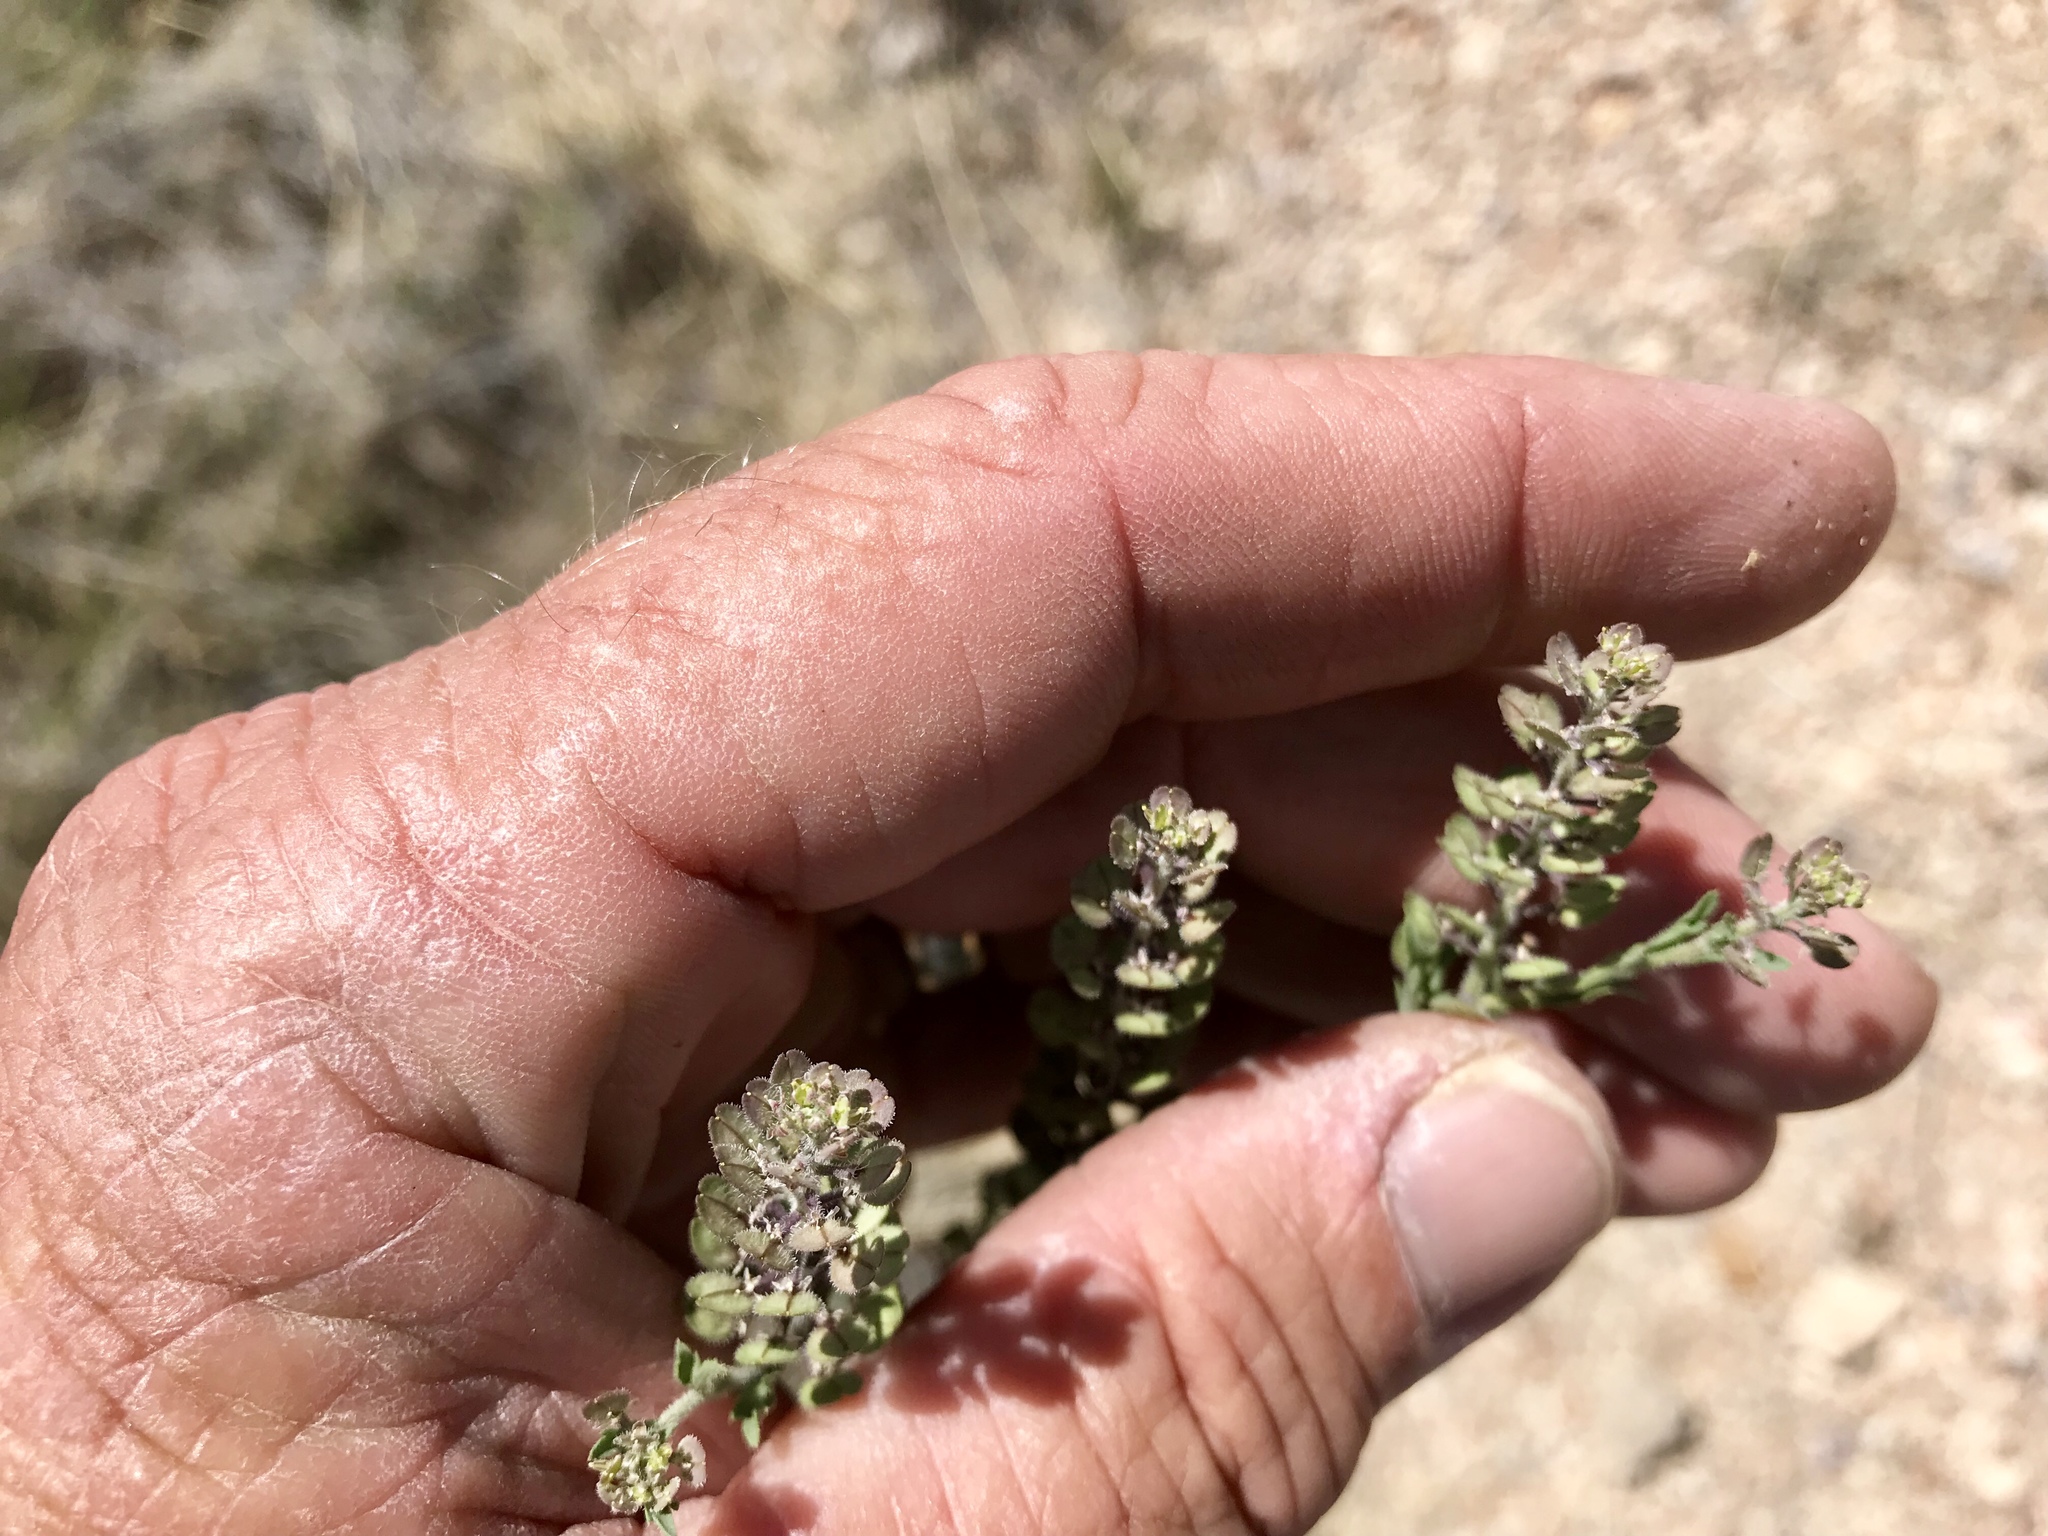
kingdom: Plantae
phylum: Tracheophyta
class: Magnoliopsida
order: Brassicales
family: Brassicaceae
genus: Lepidium
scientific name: Lepidium lasiocarpum
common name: Hairy-pod pepperwort
